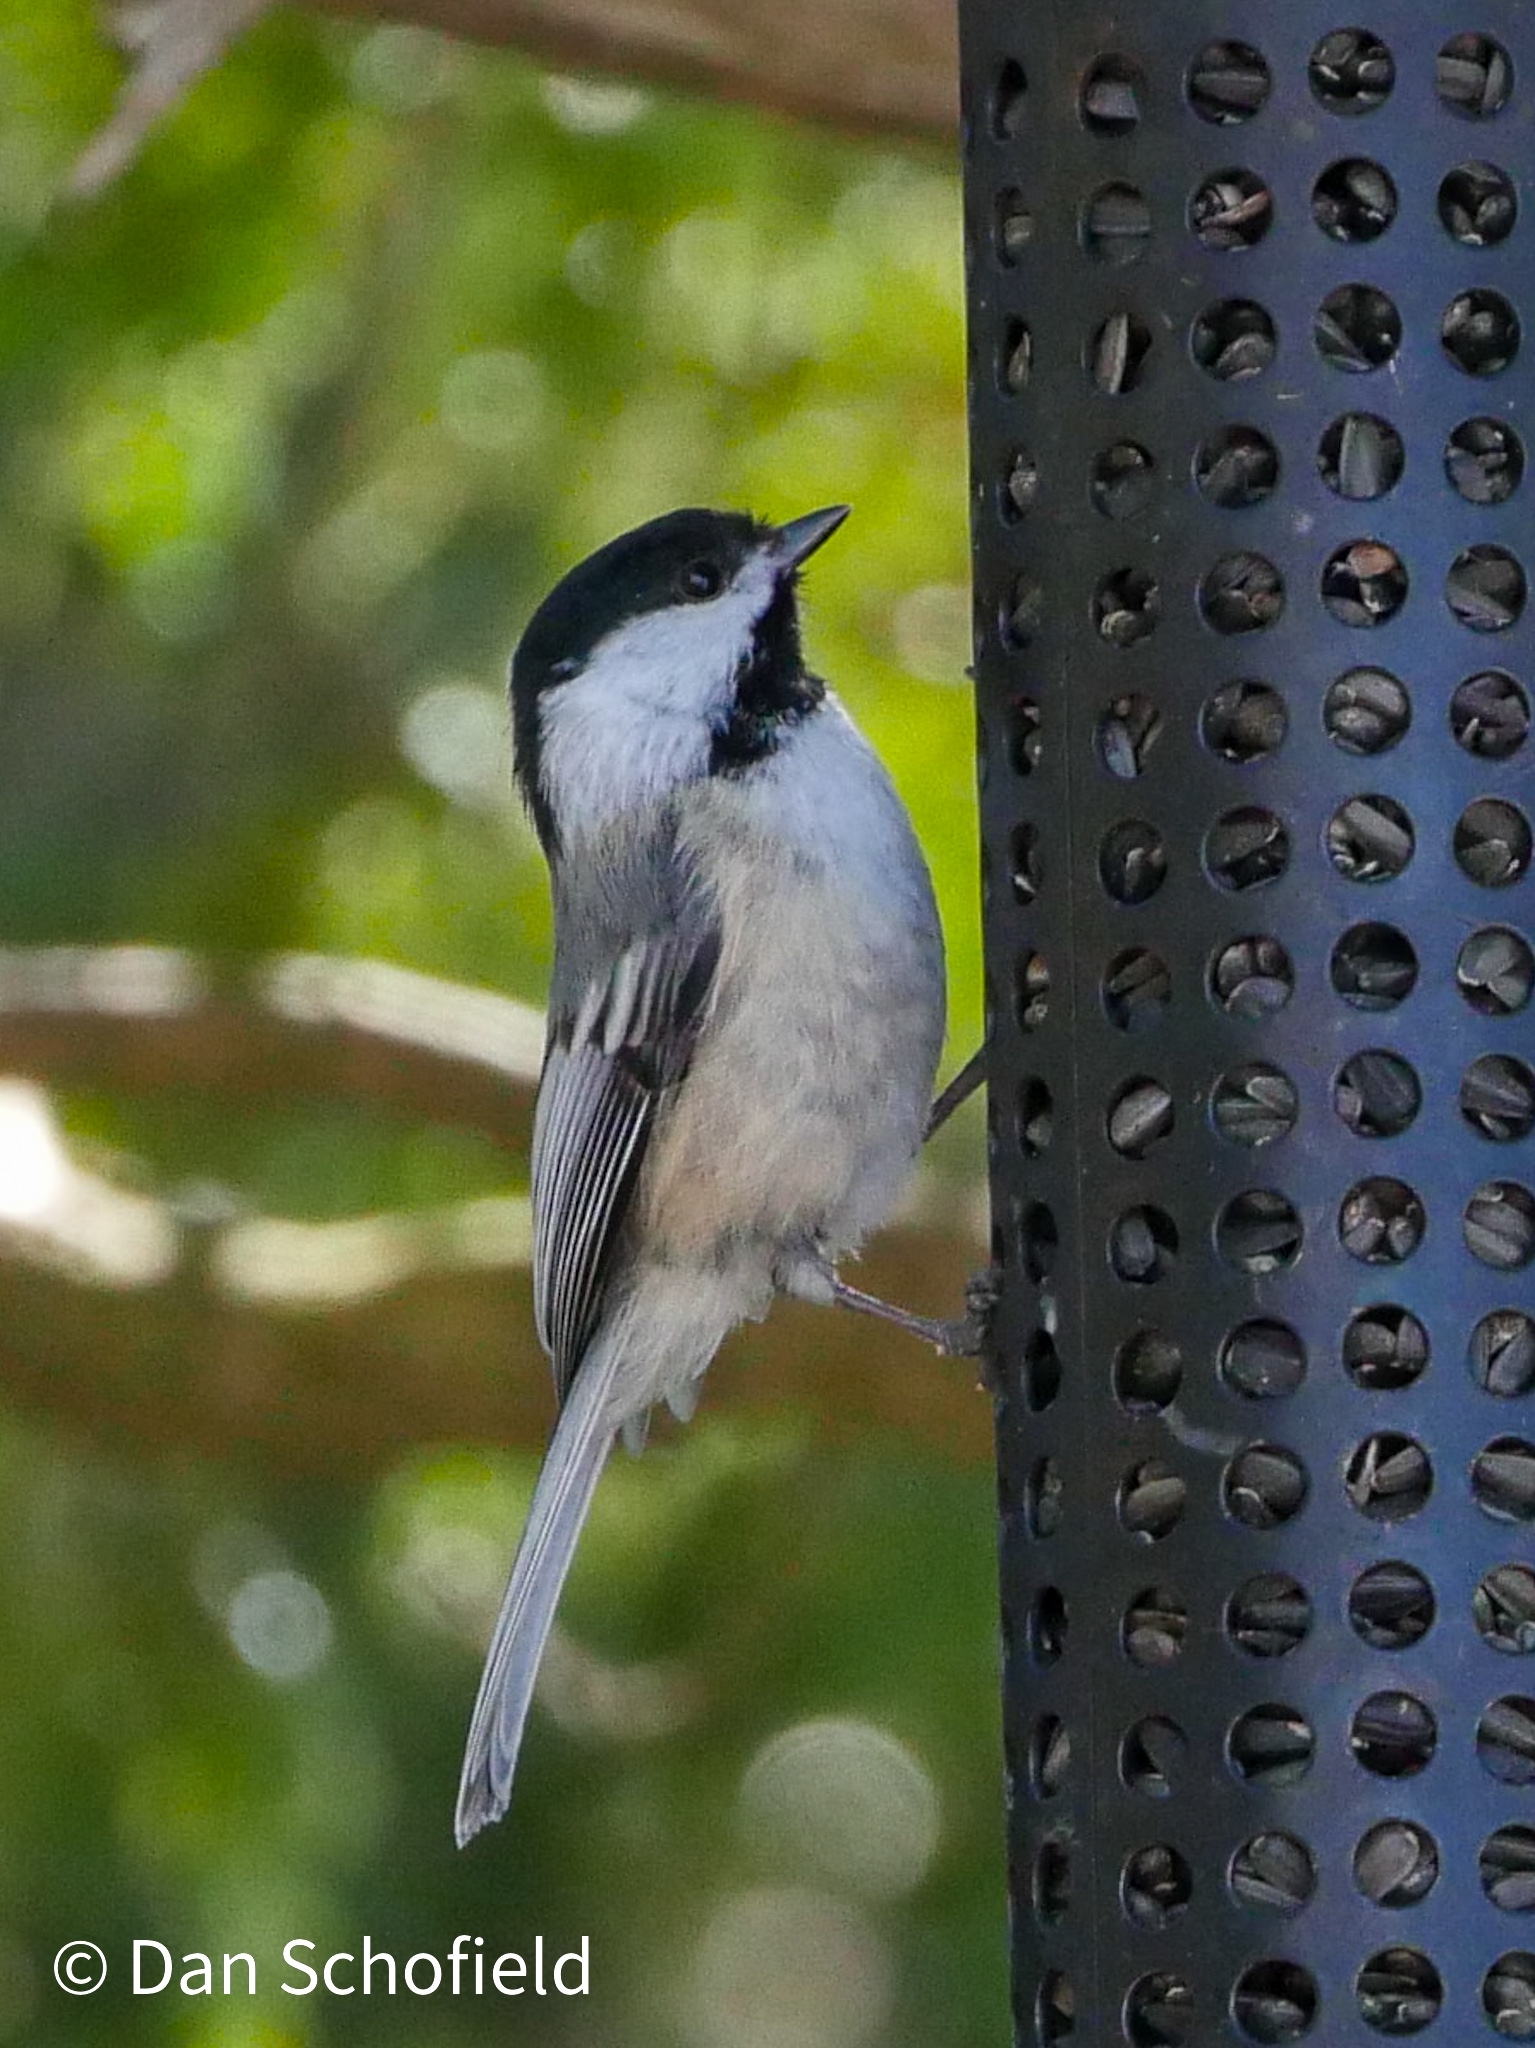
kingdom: Animalia
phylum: Chordata
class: Aves
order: Passeriformes
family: Paridae
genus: Poecile
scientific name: Poecile atricapillus
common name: Black-capped chickadee
